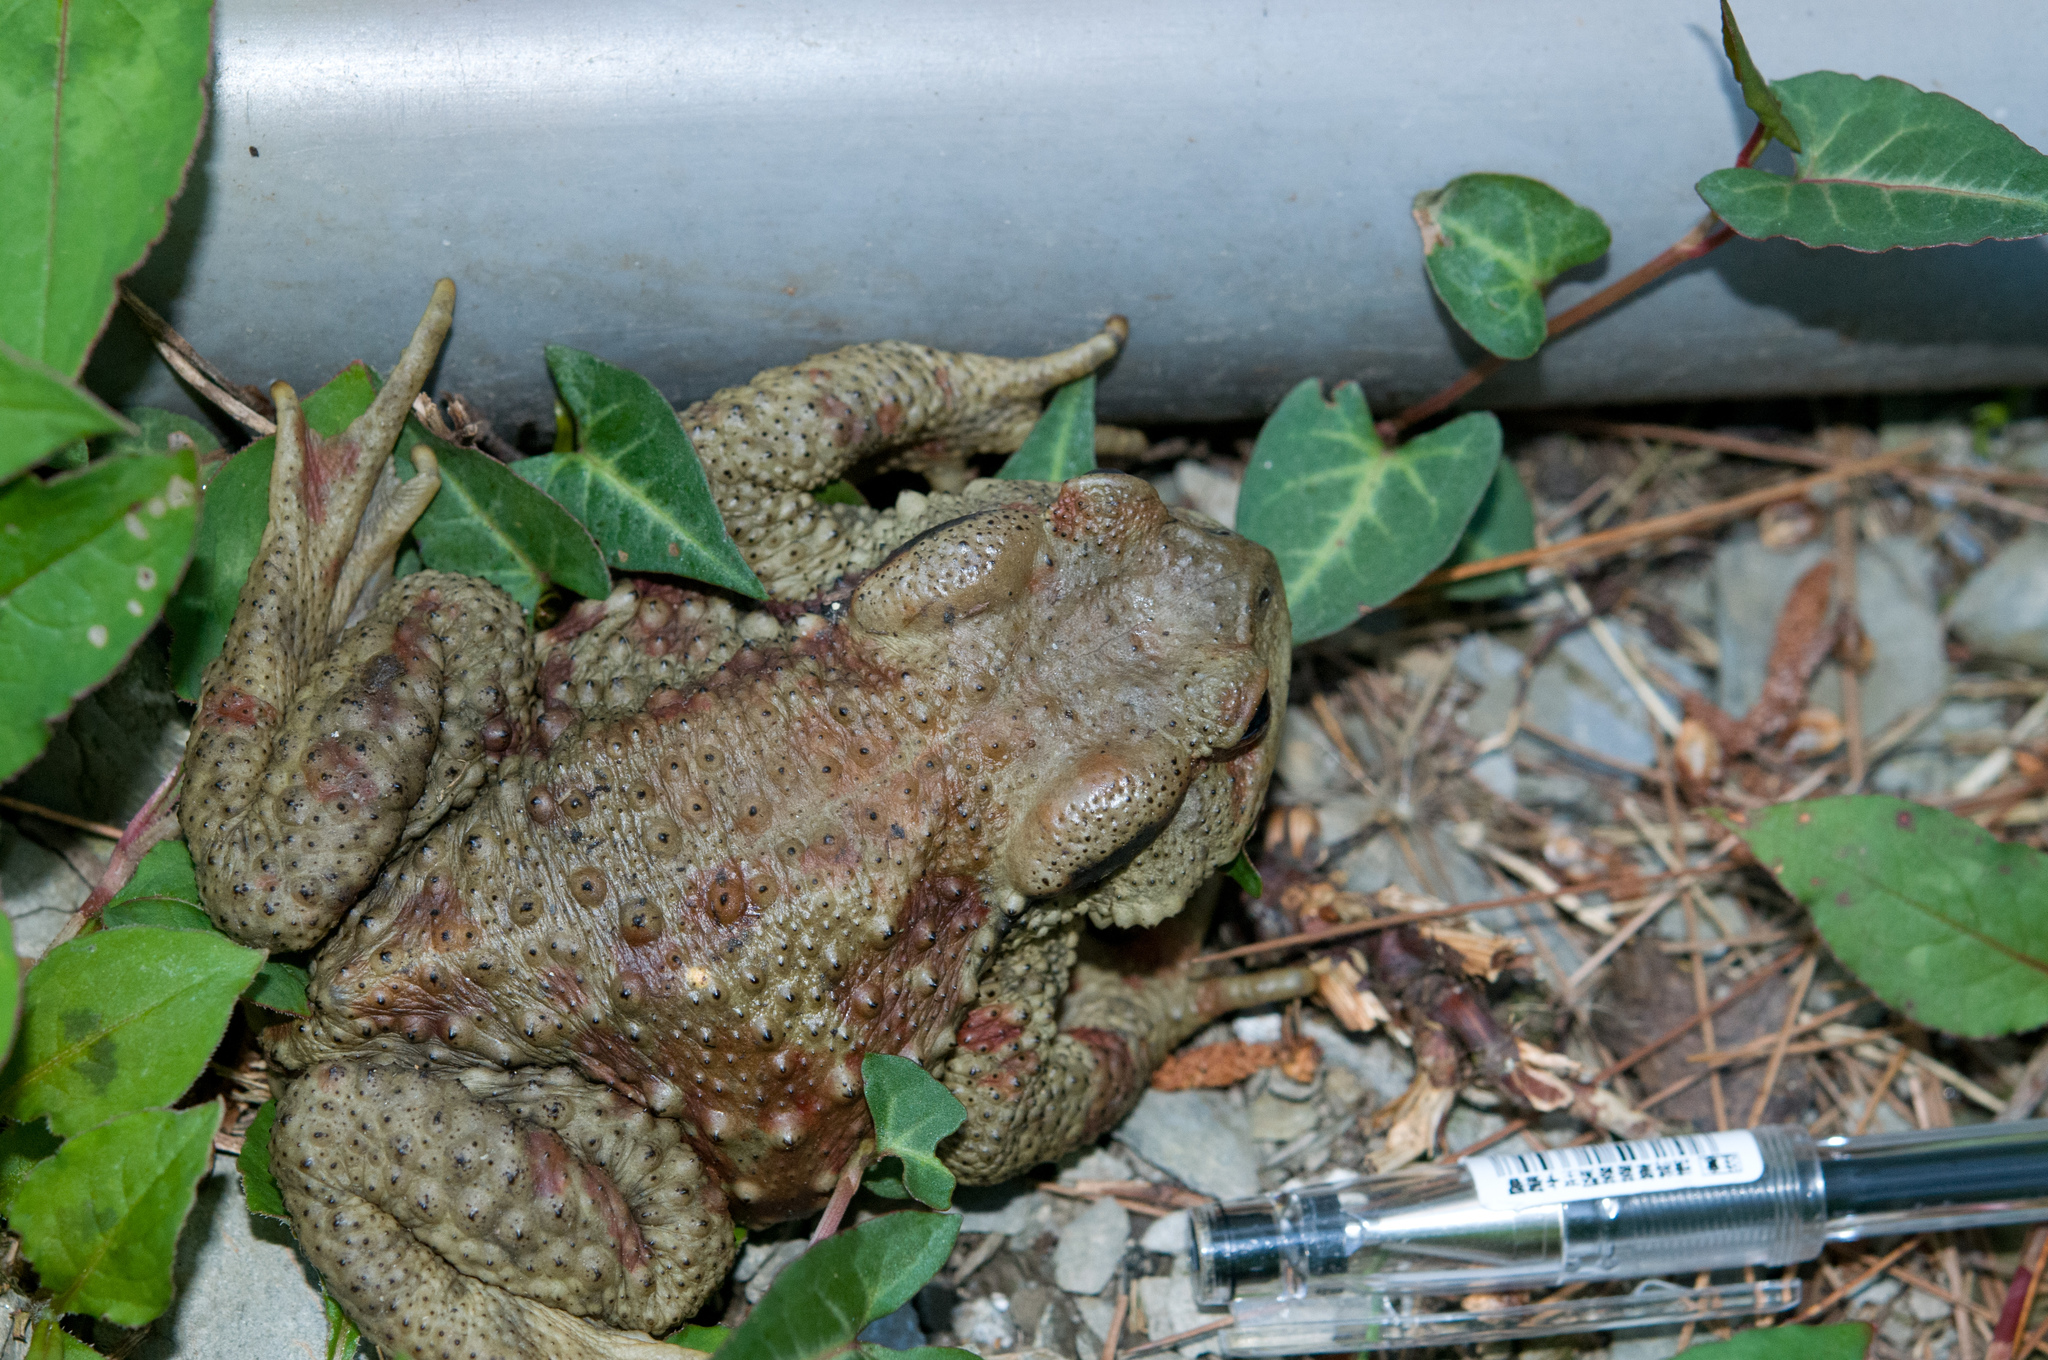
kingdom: Animalia
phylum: Chordata
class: Amphibia
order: Anura
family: Bufonidae
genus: Bufo
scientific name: Bufo bankorensis
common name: Bankor toad
